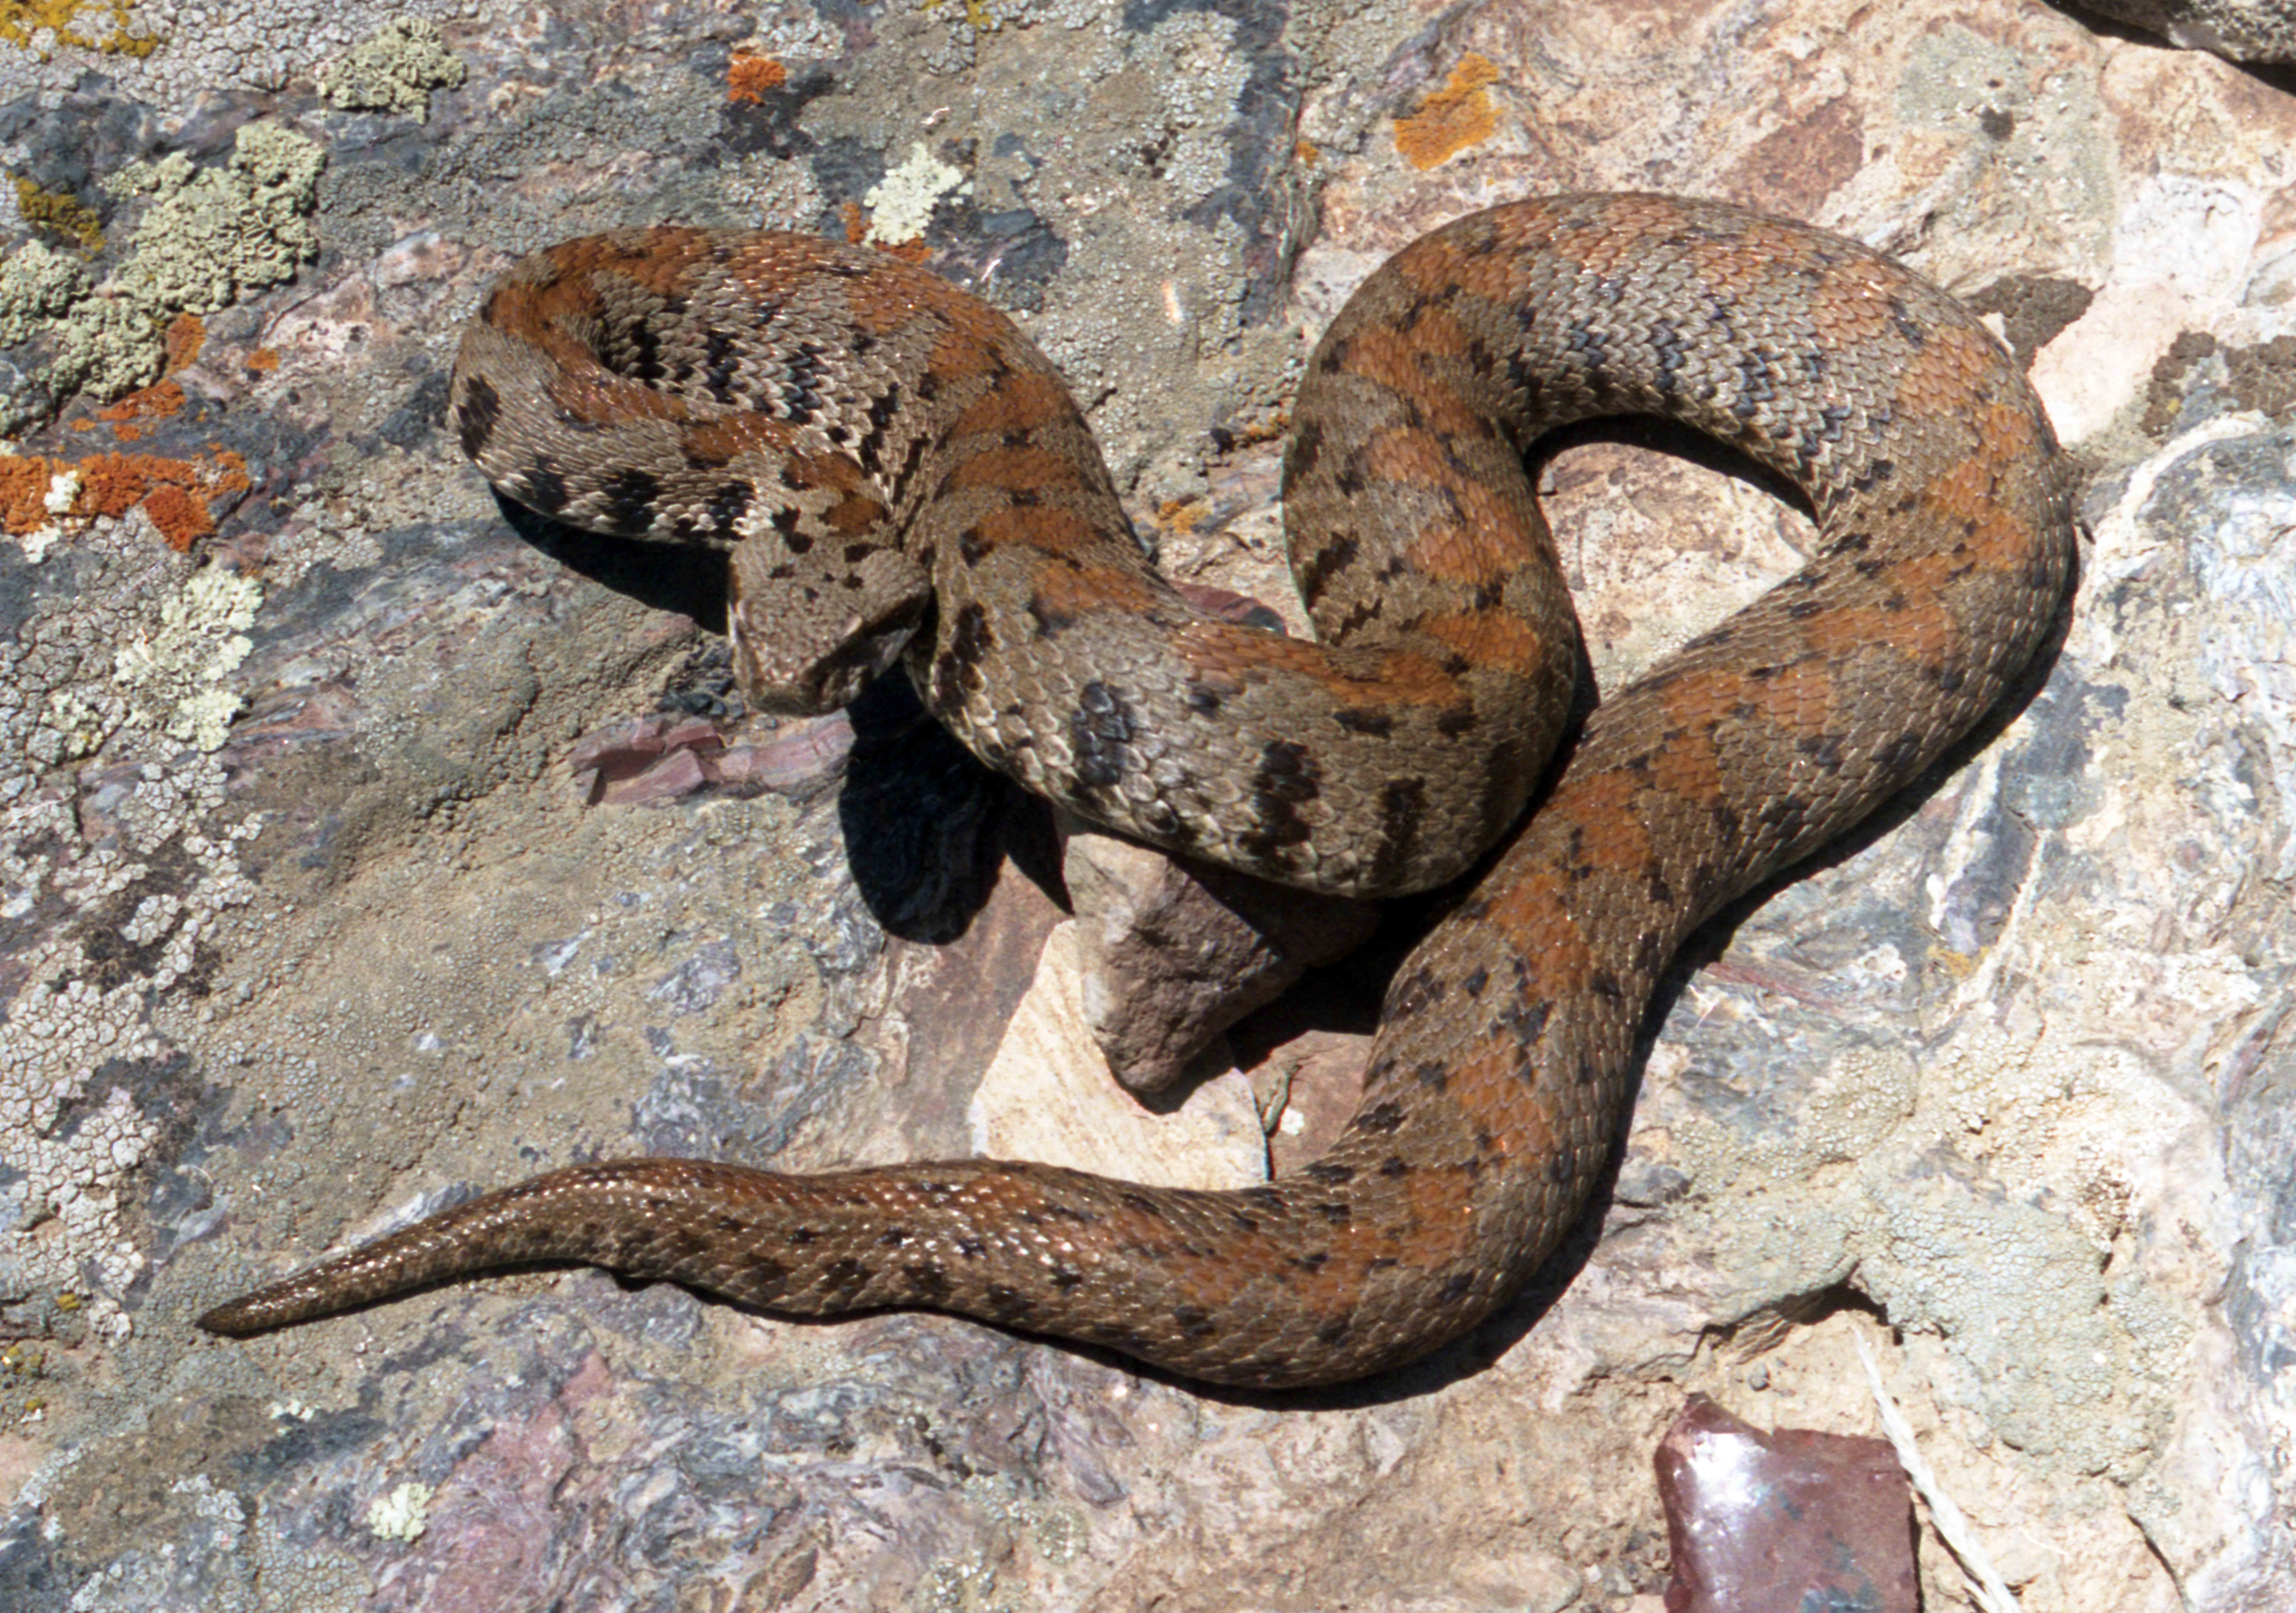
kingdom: Animalia
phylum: Chordata
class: Squamata
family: Viperidae
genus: Montivipera
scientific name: Montivipera raddei
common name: Armenian viper
